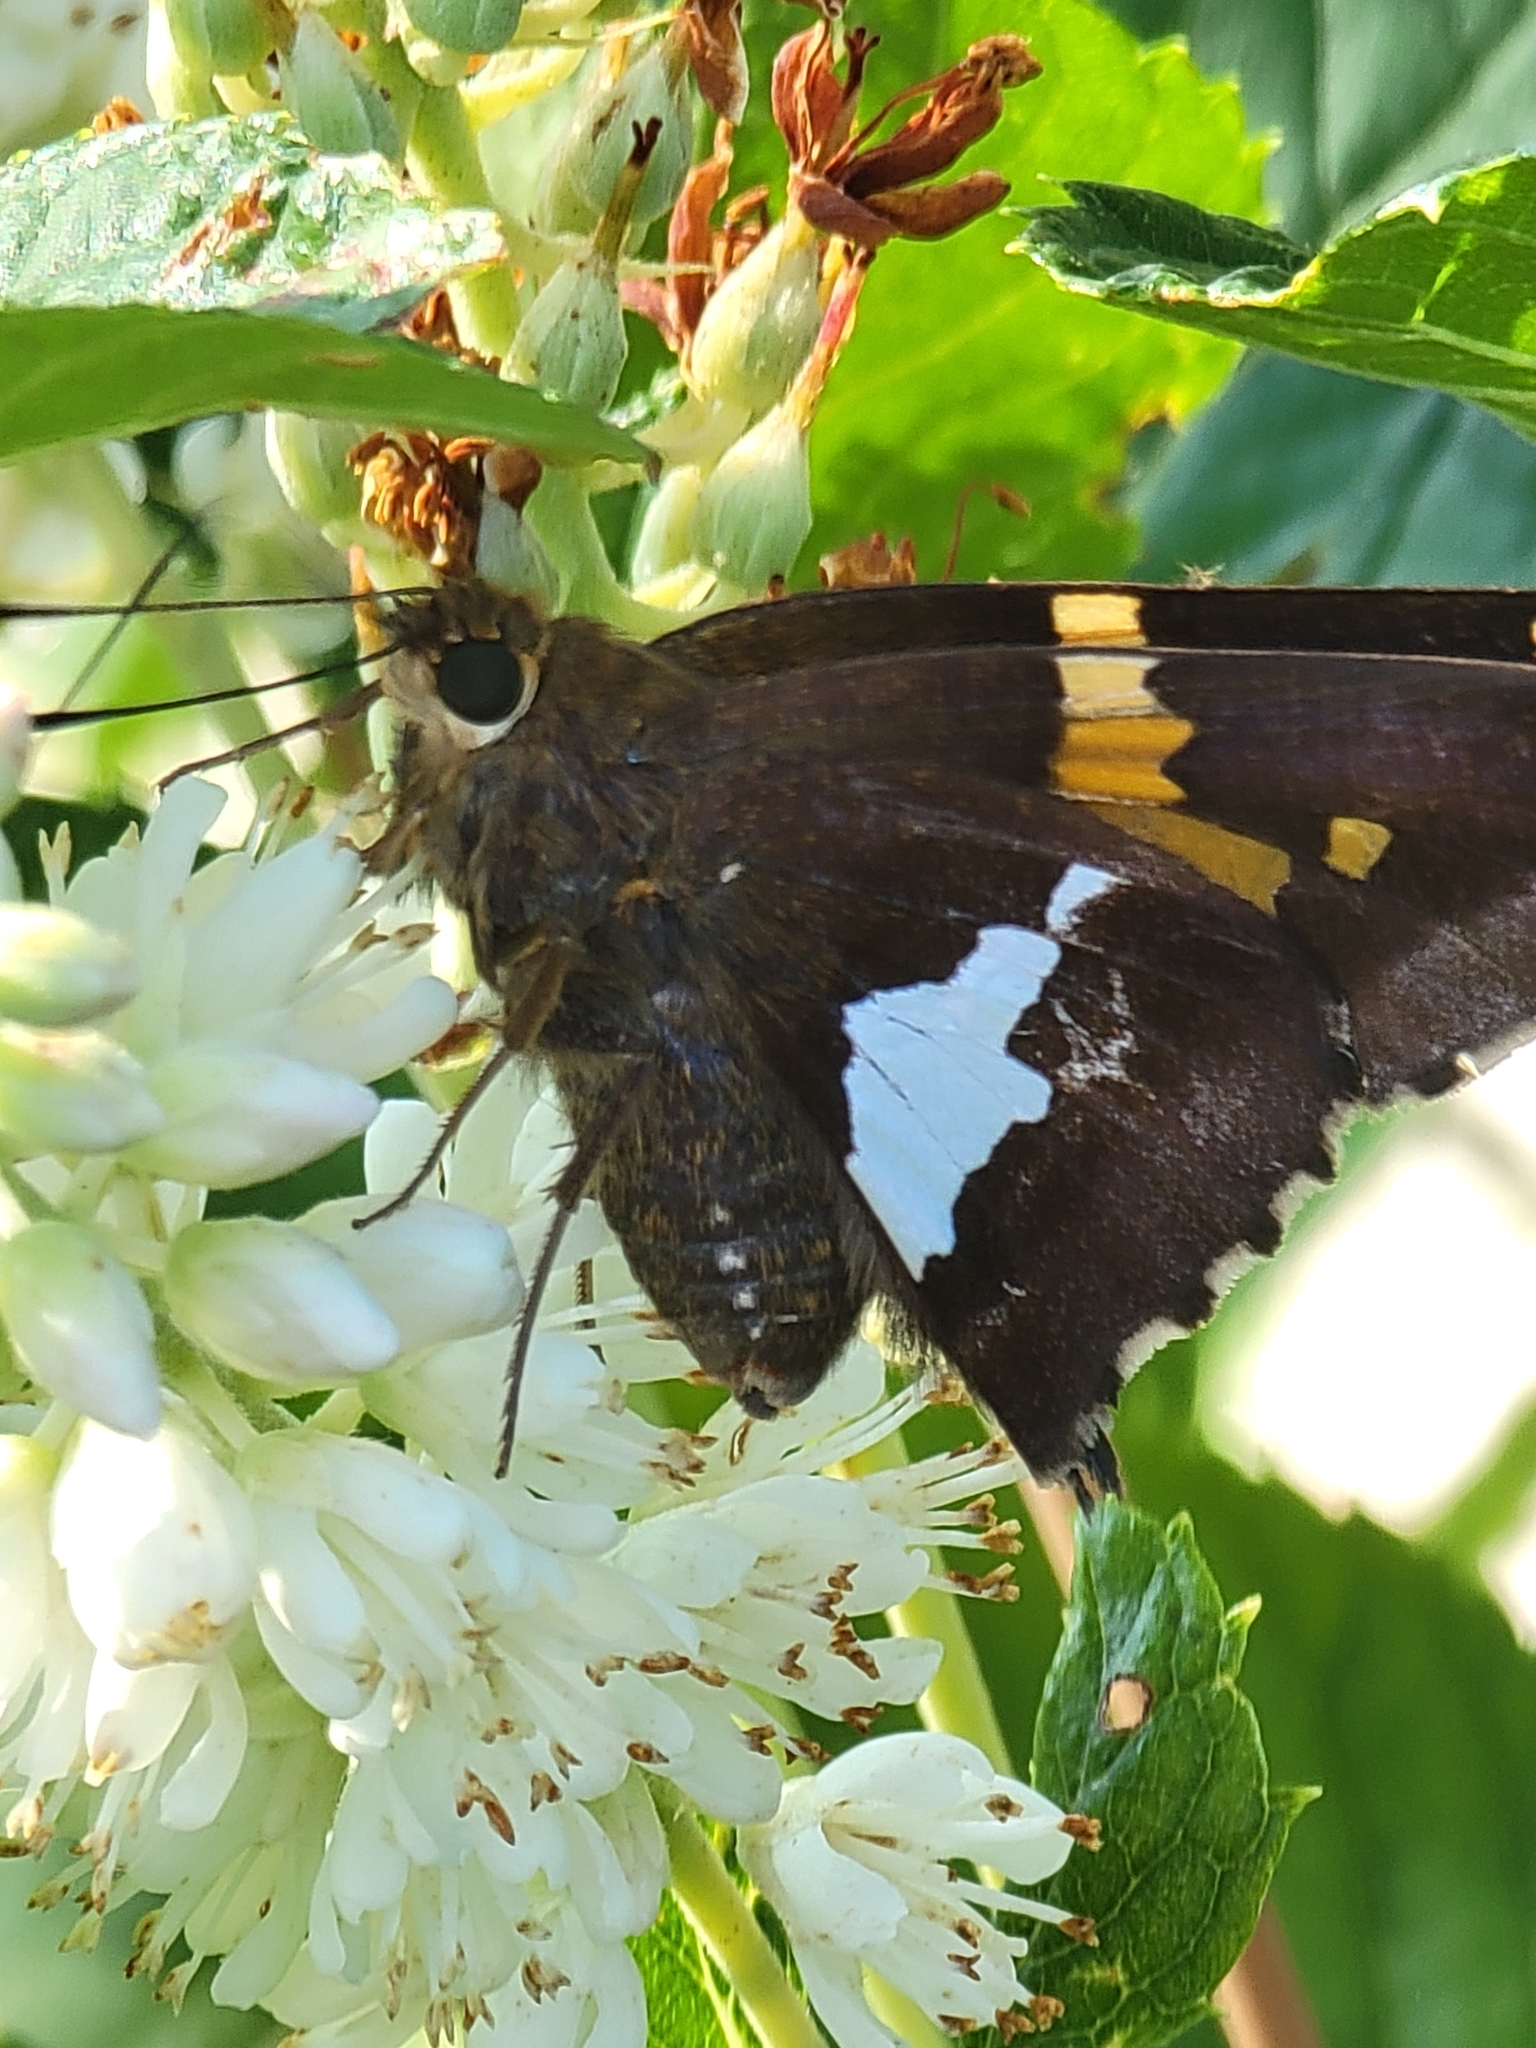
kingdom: Animalia
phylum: Arthropoda
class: Insecta
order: Lepidoptera
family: Hesperiidae
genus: Epargyreus
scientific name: Epargyreus clarus
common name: Silver-spotted skipper
